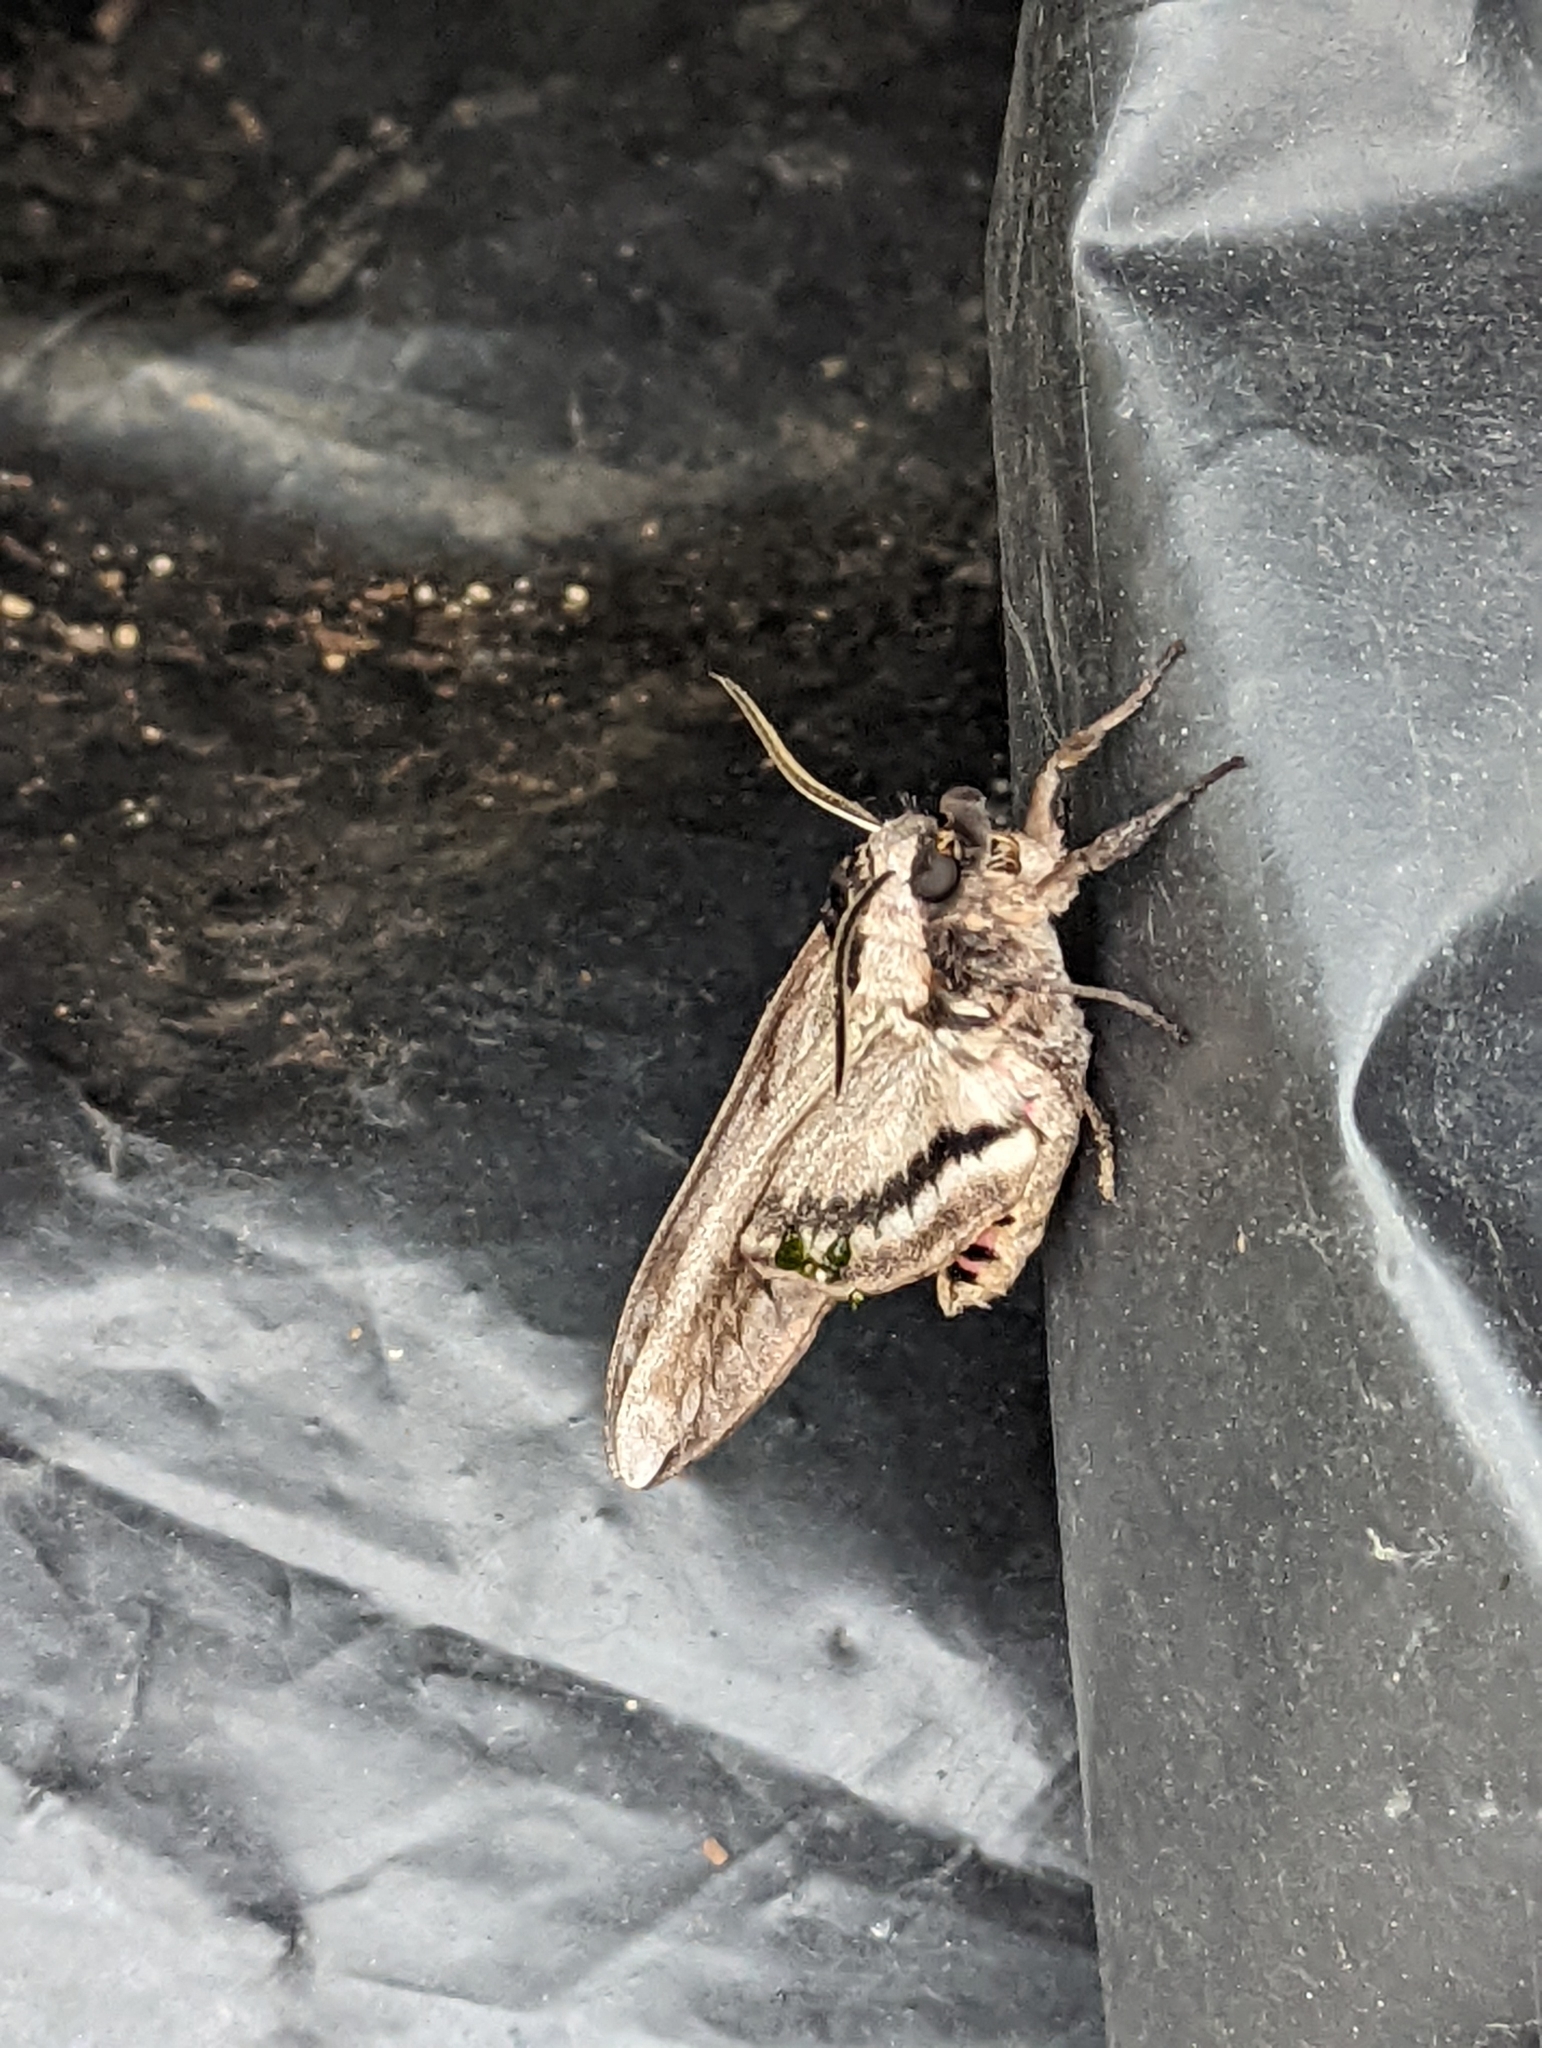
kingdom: Animalia
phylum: Arthropoda
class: Insecta
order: Lepidoptera
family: Sphingidae
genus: Sphinx
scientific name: Sphinx ligustri
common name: Privet hawk-moth
